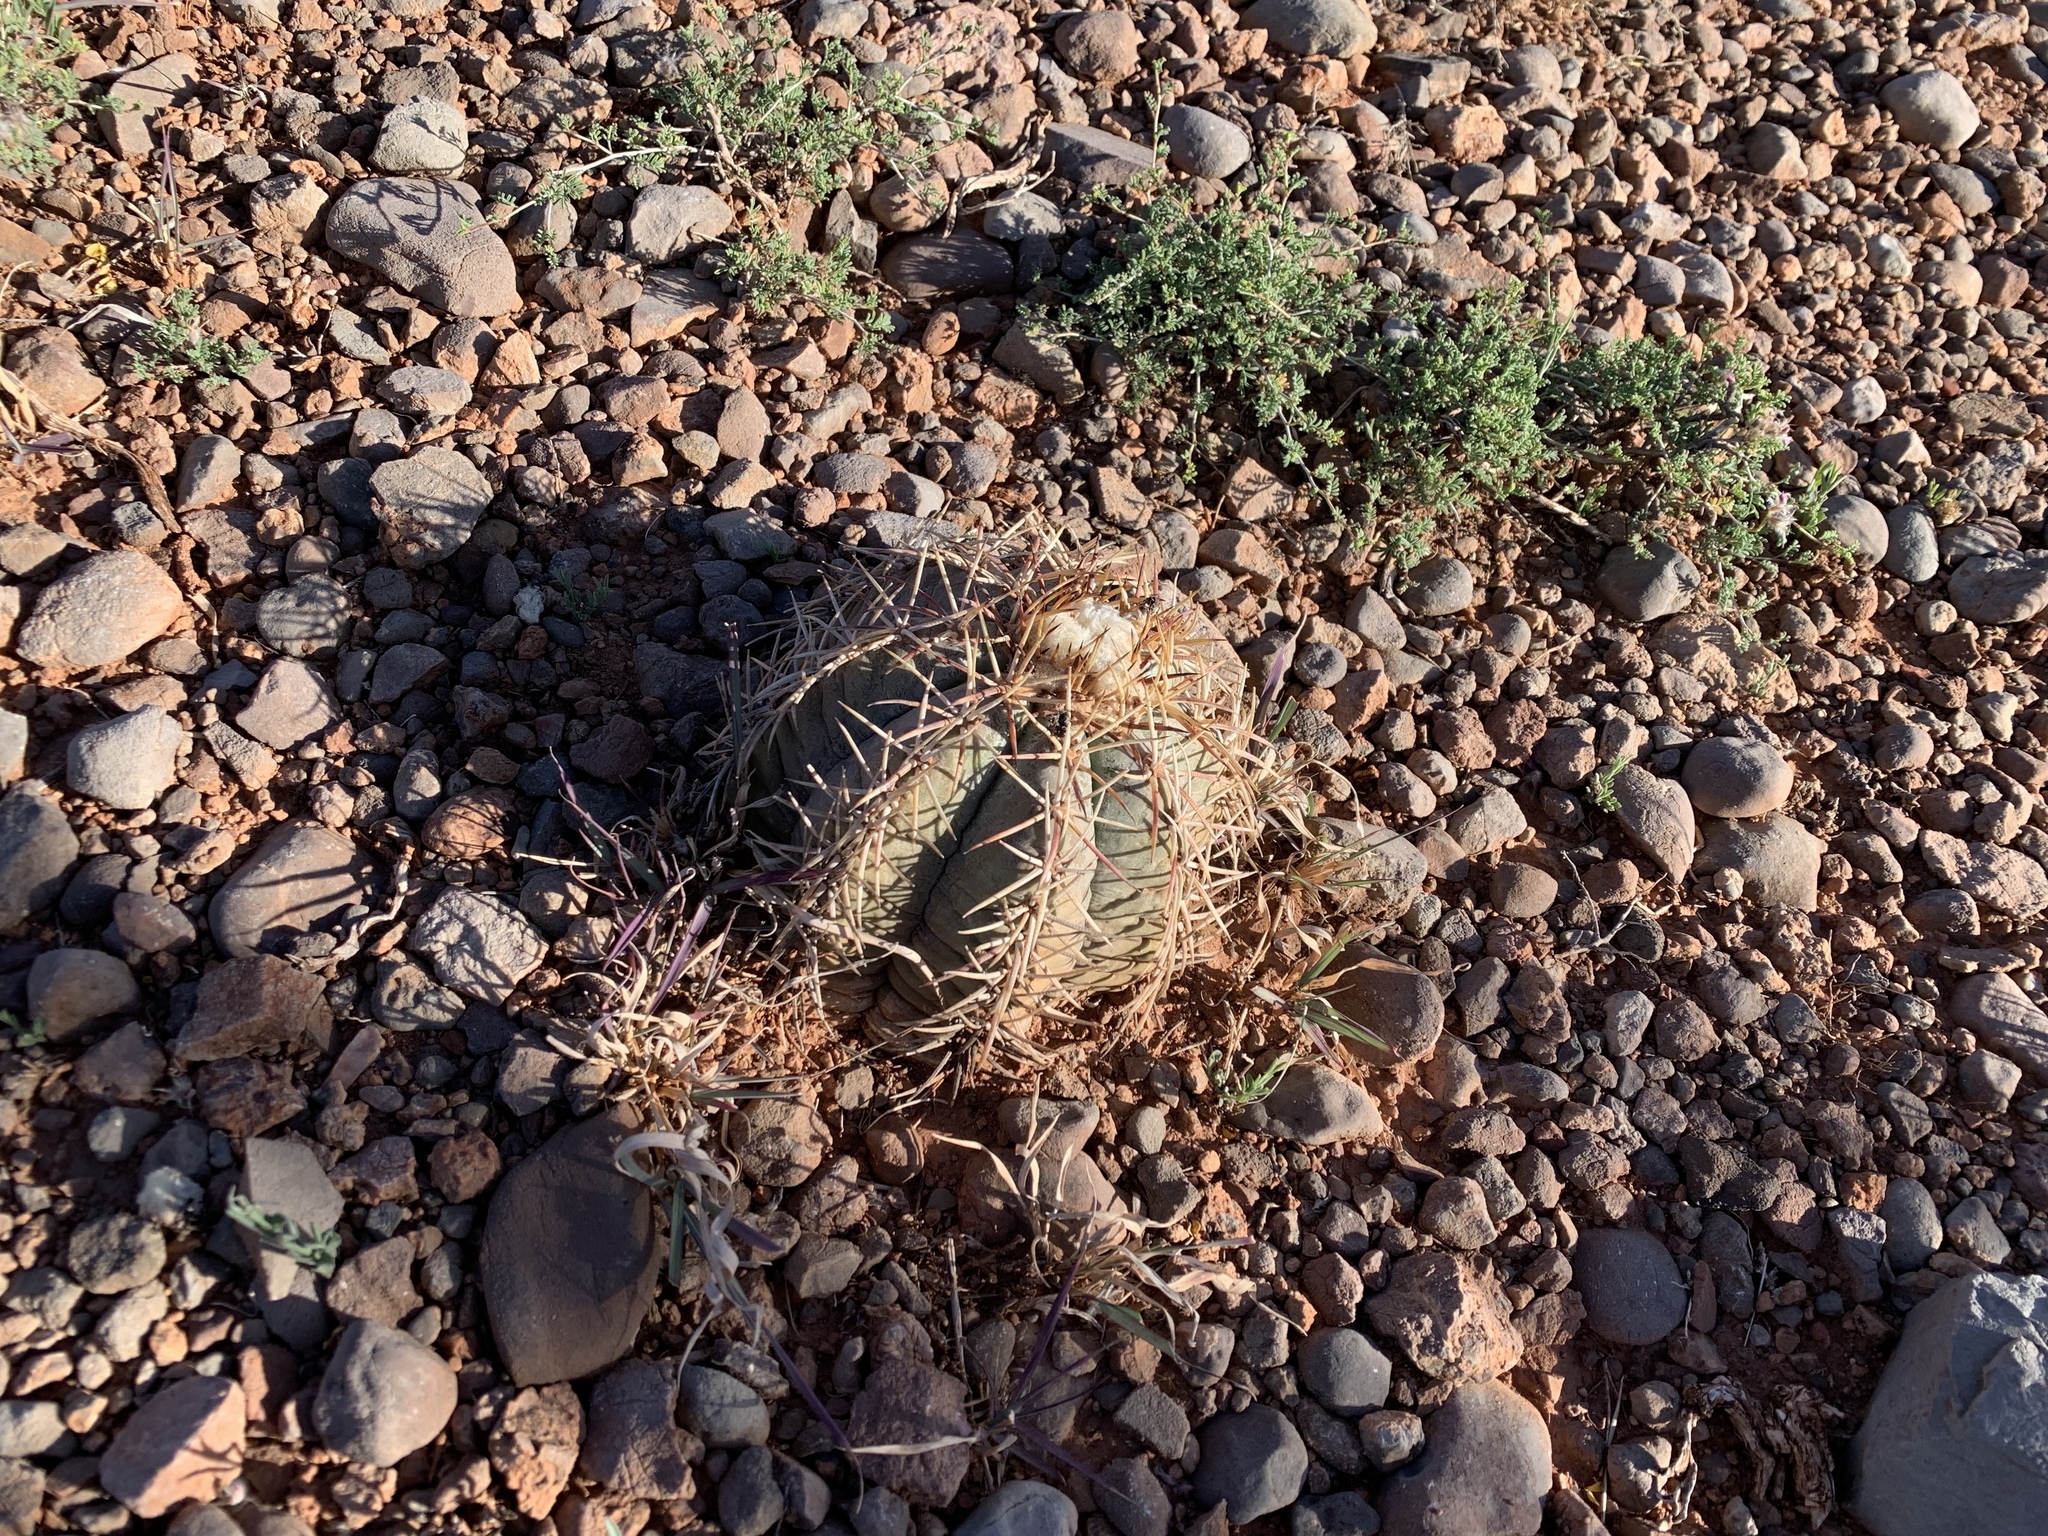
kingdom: Plantae
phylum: Tracheophyta
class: Magnoliopsida
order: Caryophyllales
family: Cactaceae
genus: Echinocactus
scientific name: Echinocactus horizonthalonius
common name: Devilshead
